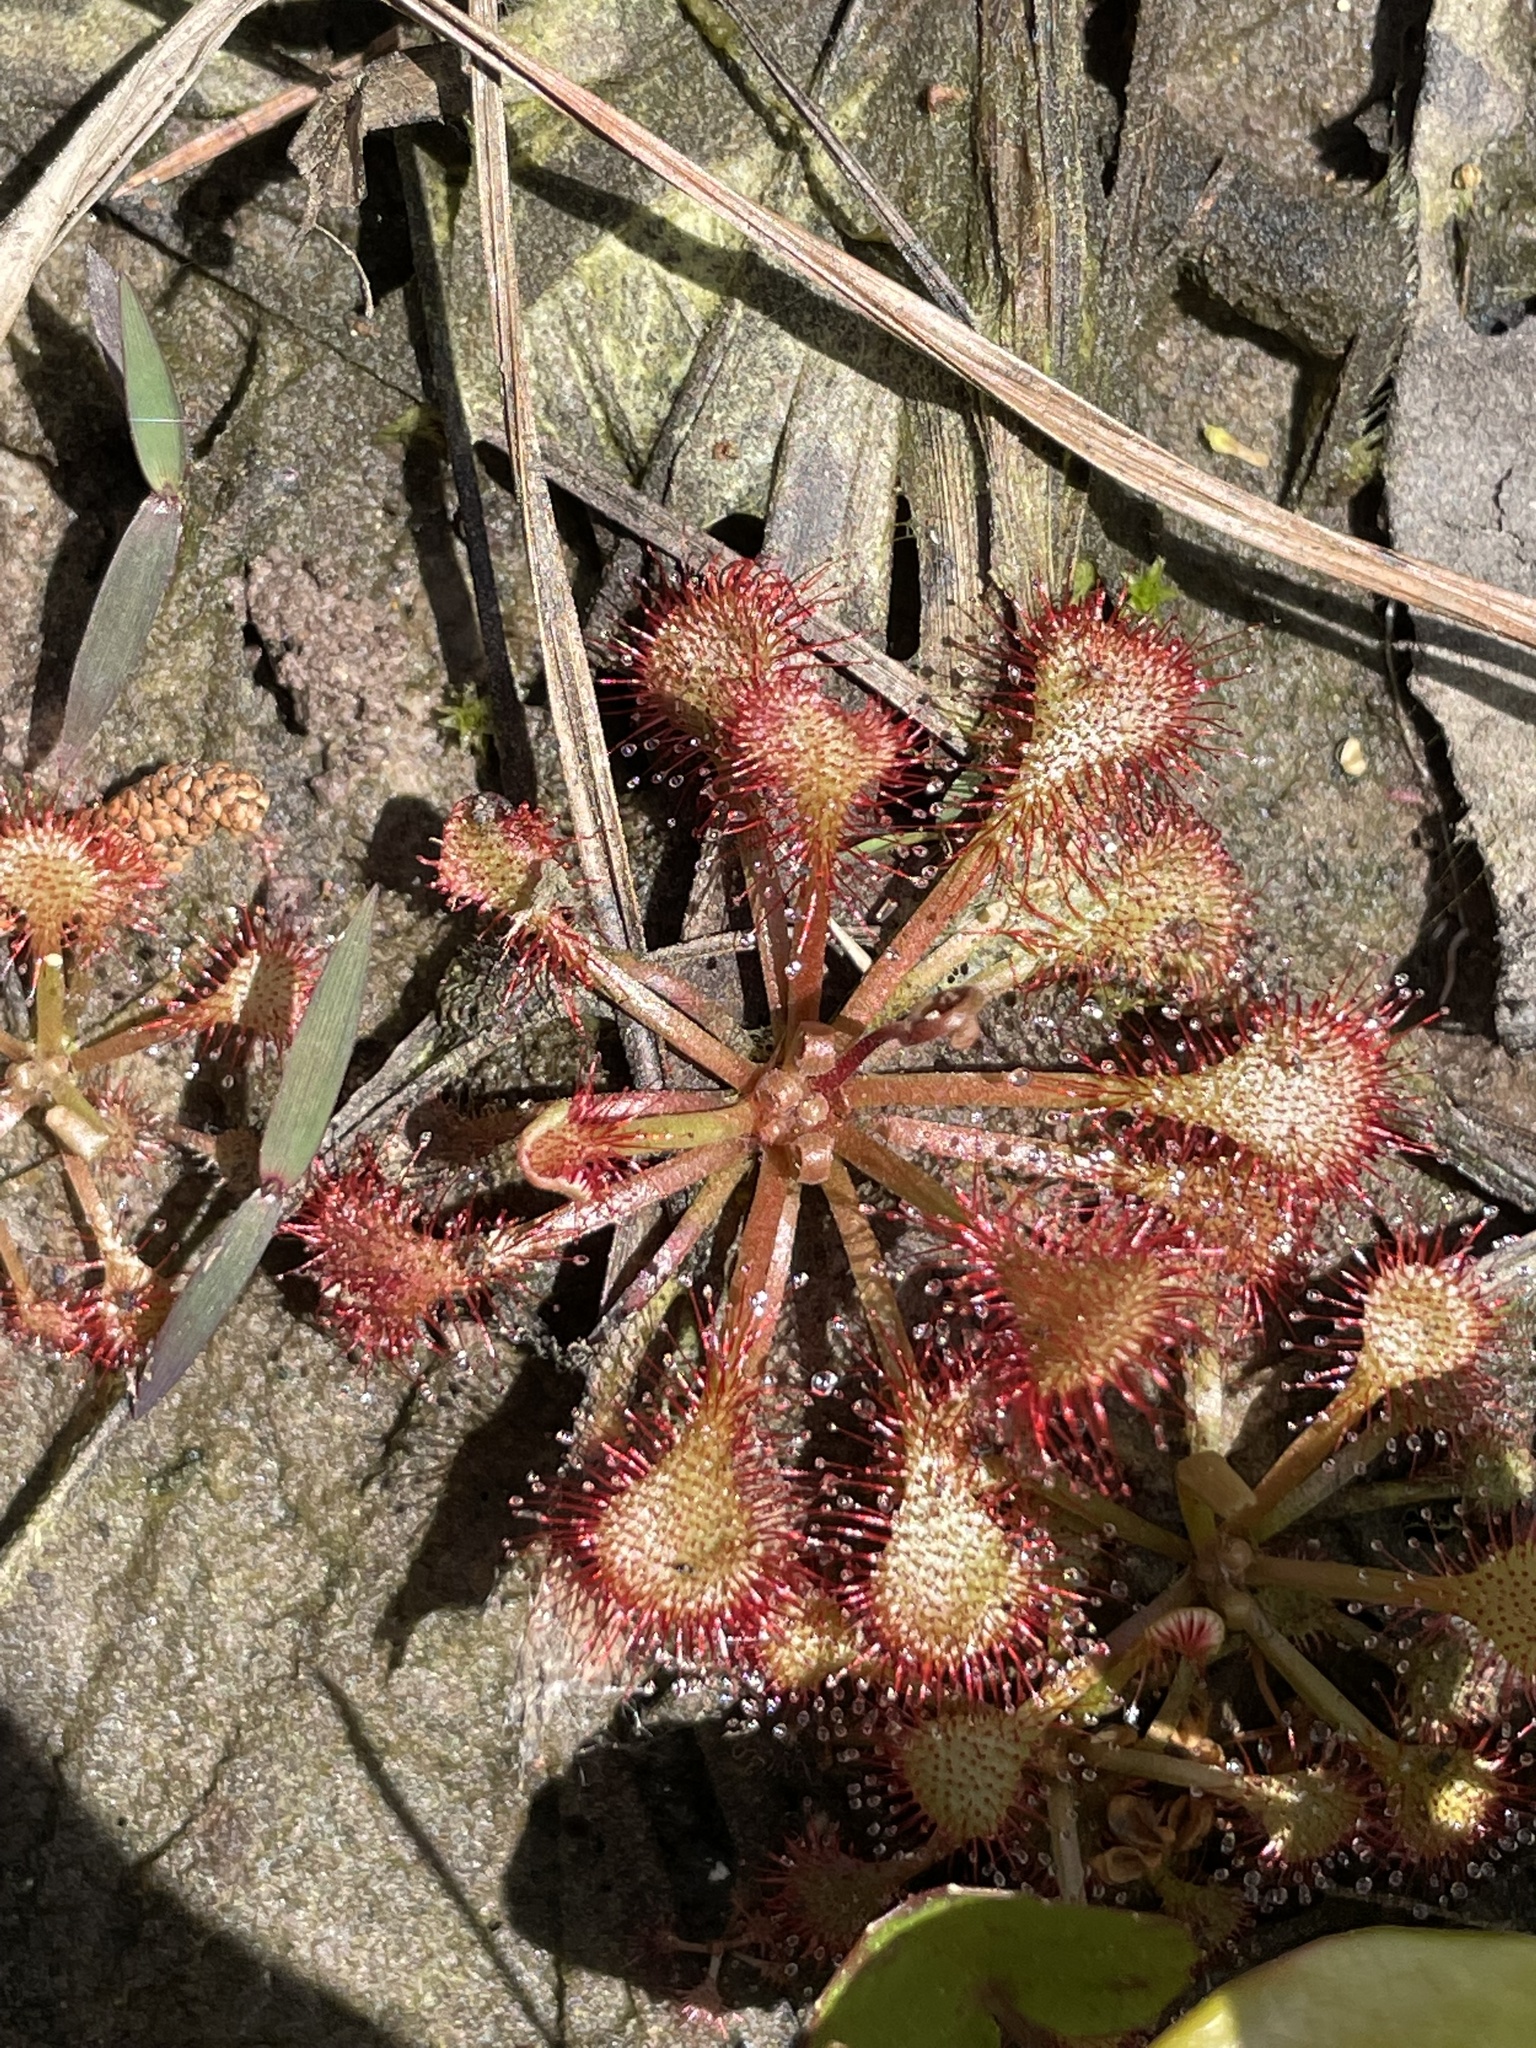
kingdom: Plantae
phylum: Tracheophyta
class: Magnoliopsida
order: Caryophyllales
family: Droseraceae
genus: Drosera
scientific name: Drosera capillaris
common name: Pink sundew
